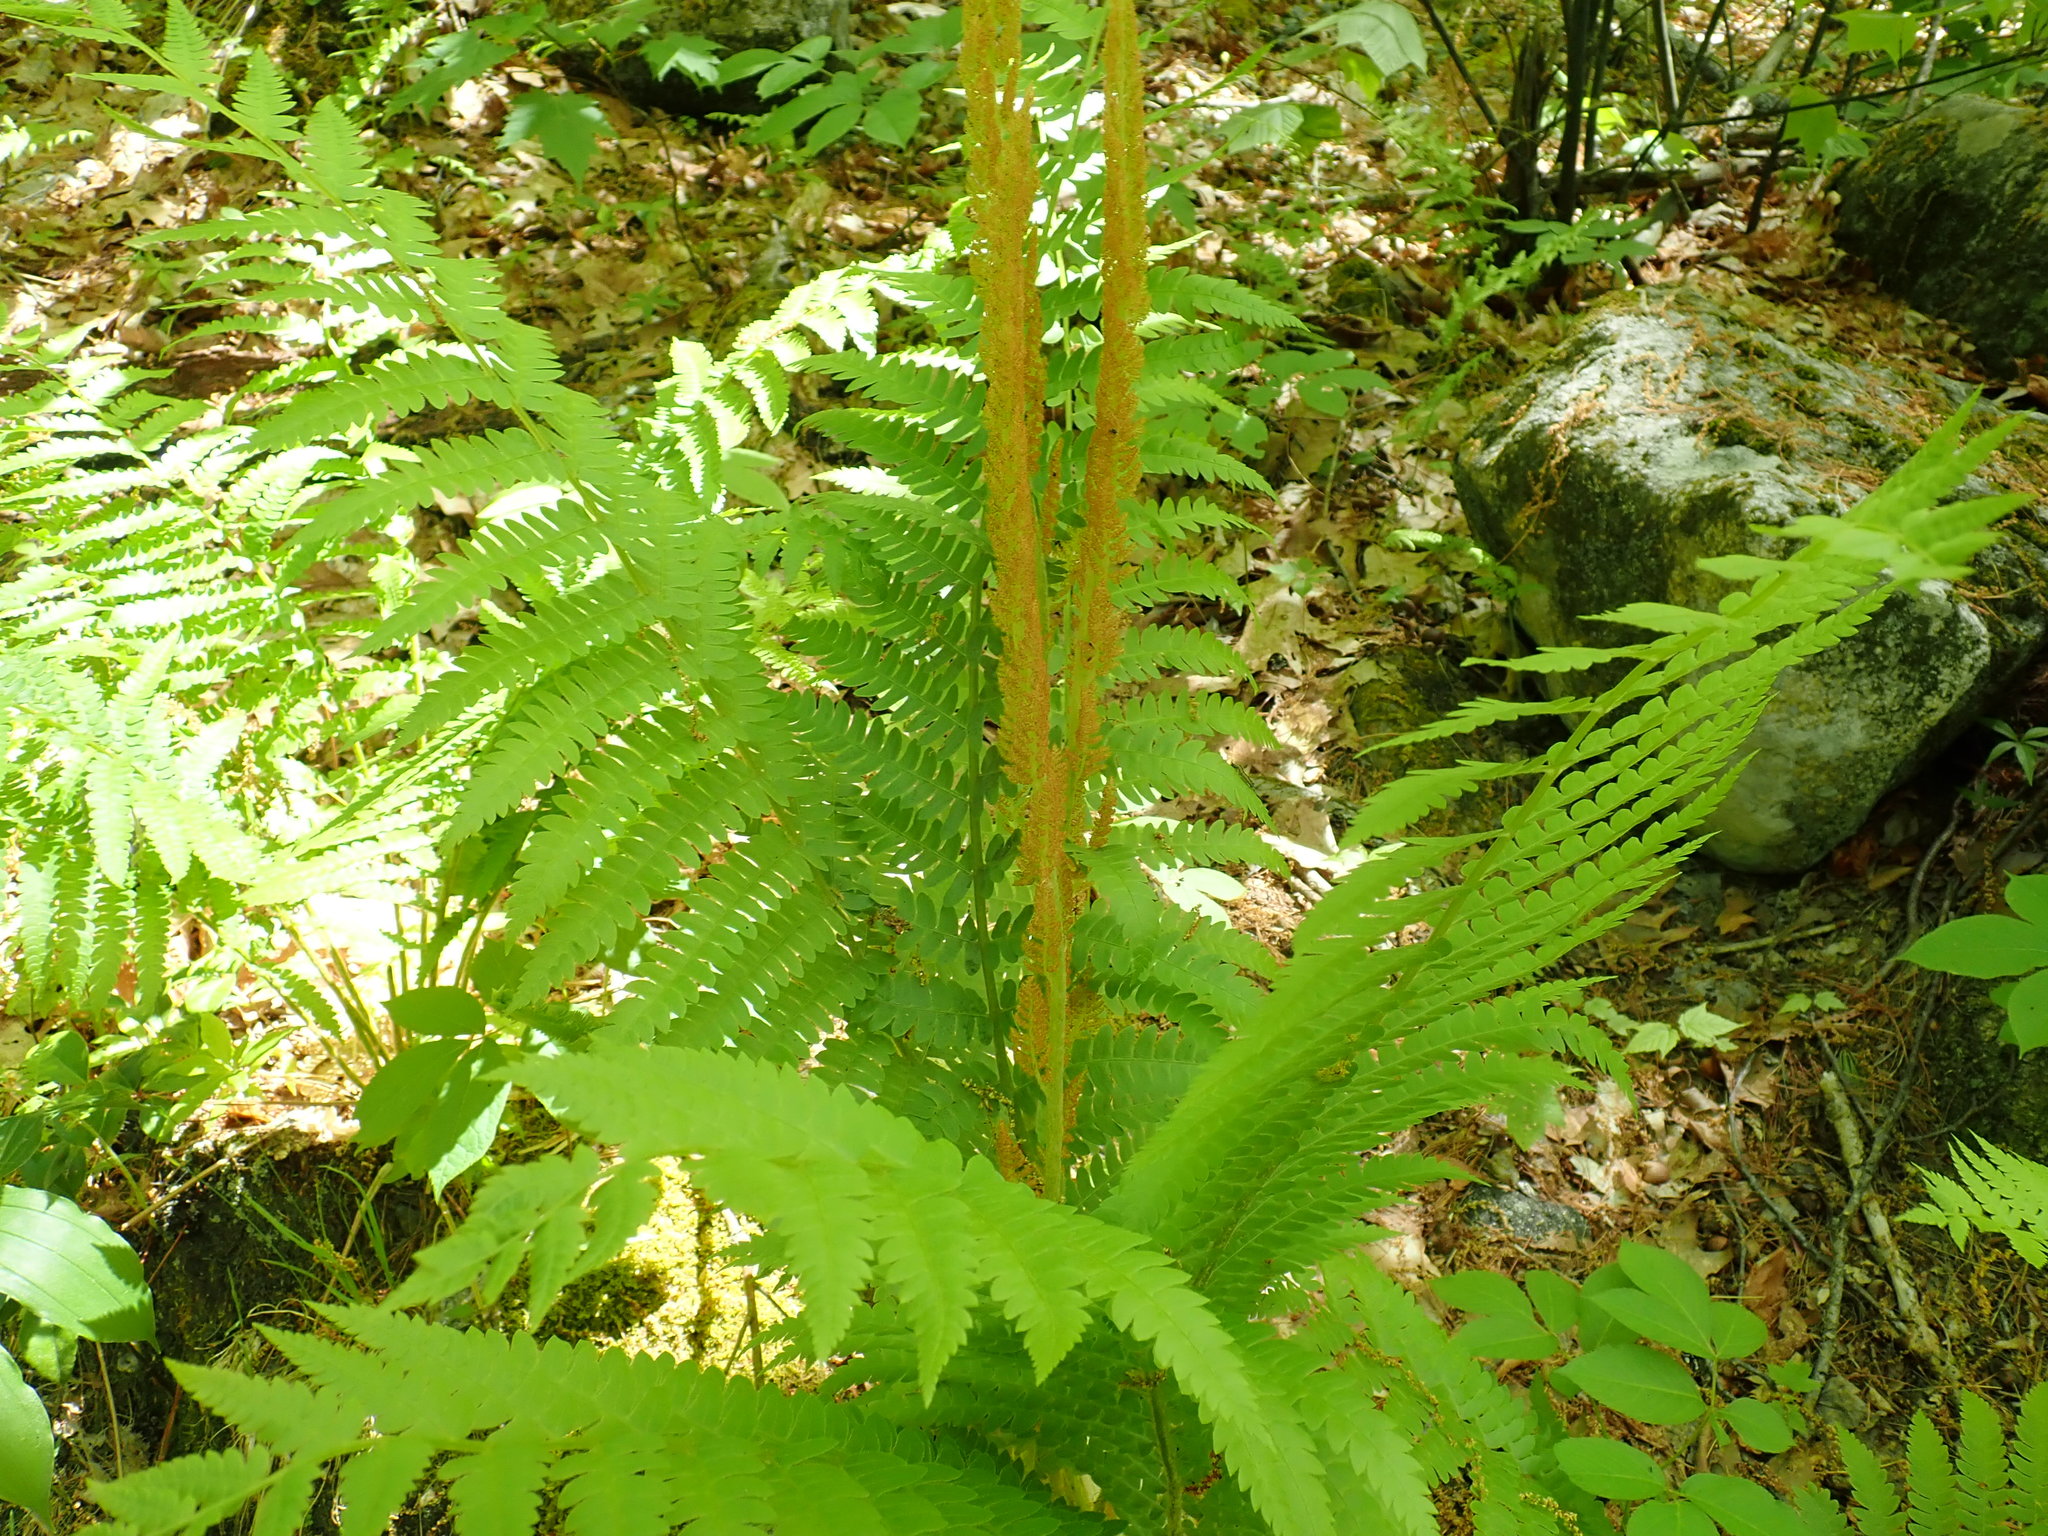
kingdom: Plantae
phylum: Tracheophyta
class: Polypodiopsida
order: Osmundales
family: Osmundaceae
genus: Osmundastrum
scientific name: Osmundastrum cinnamomeum
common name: Cinnamon fern
